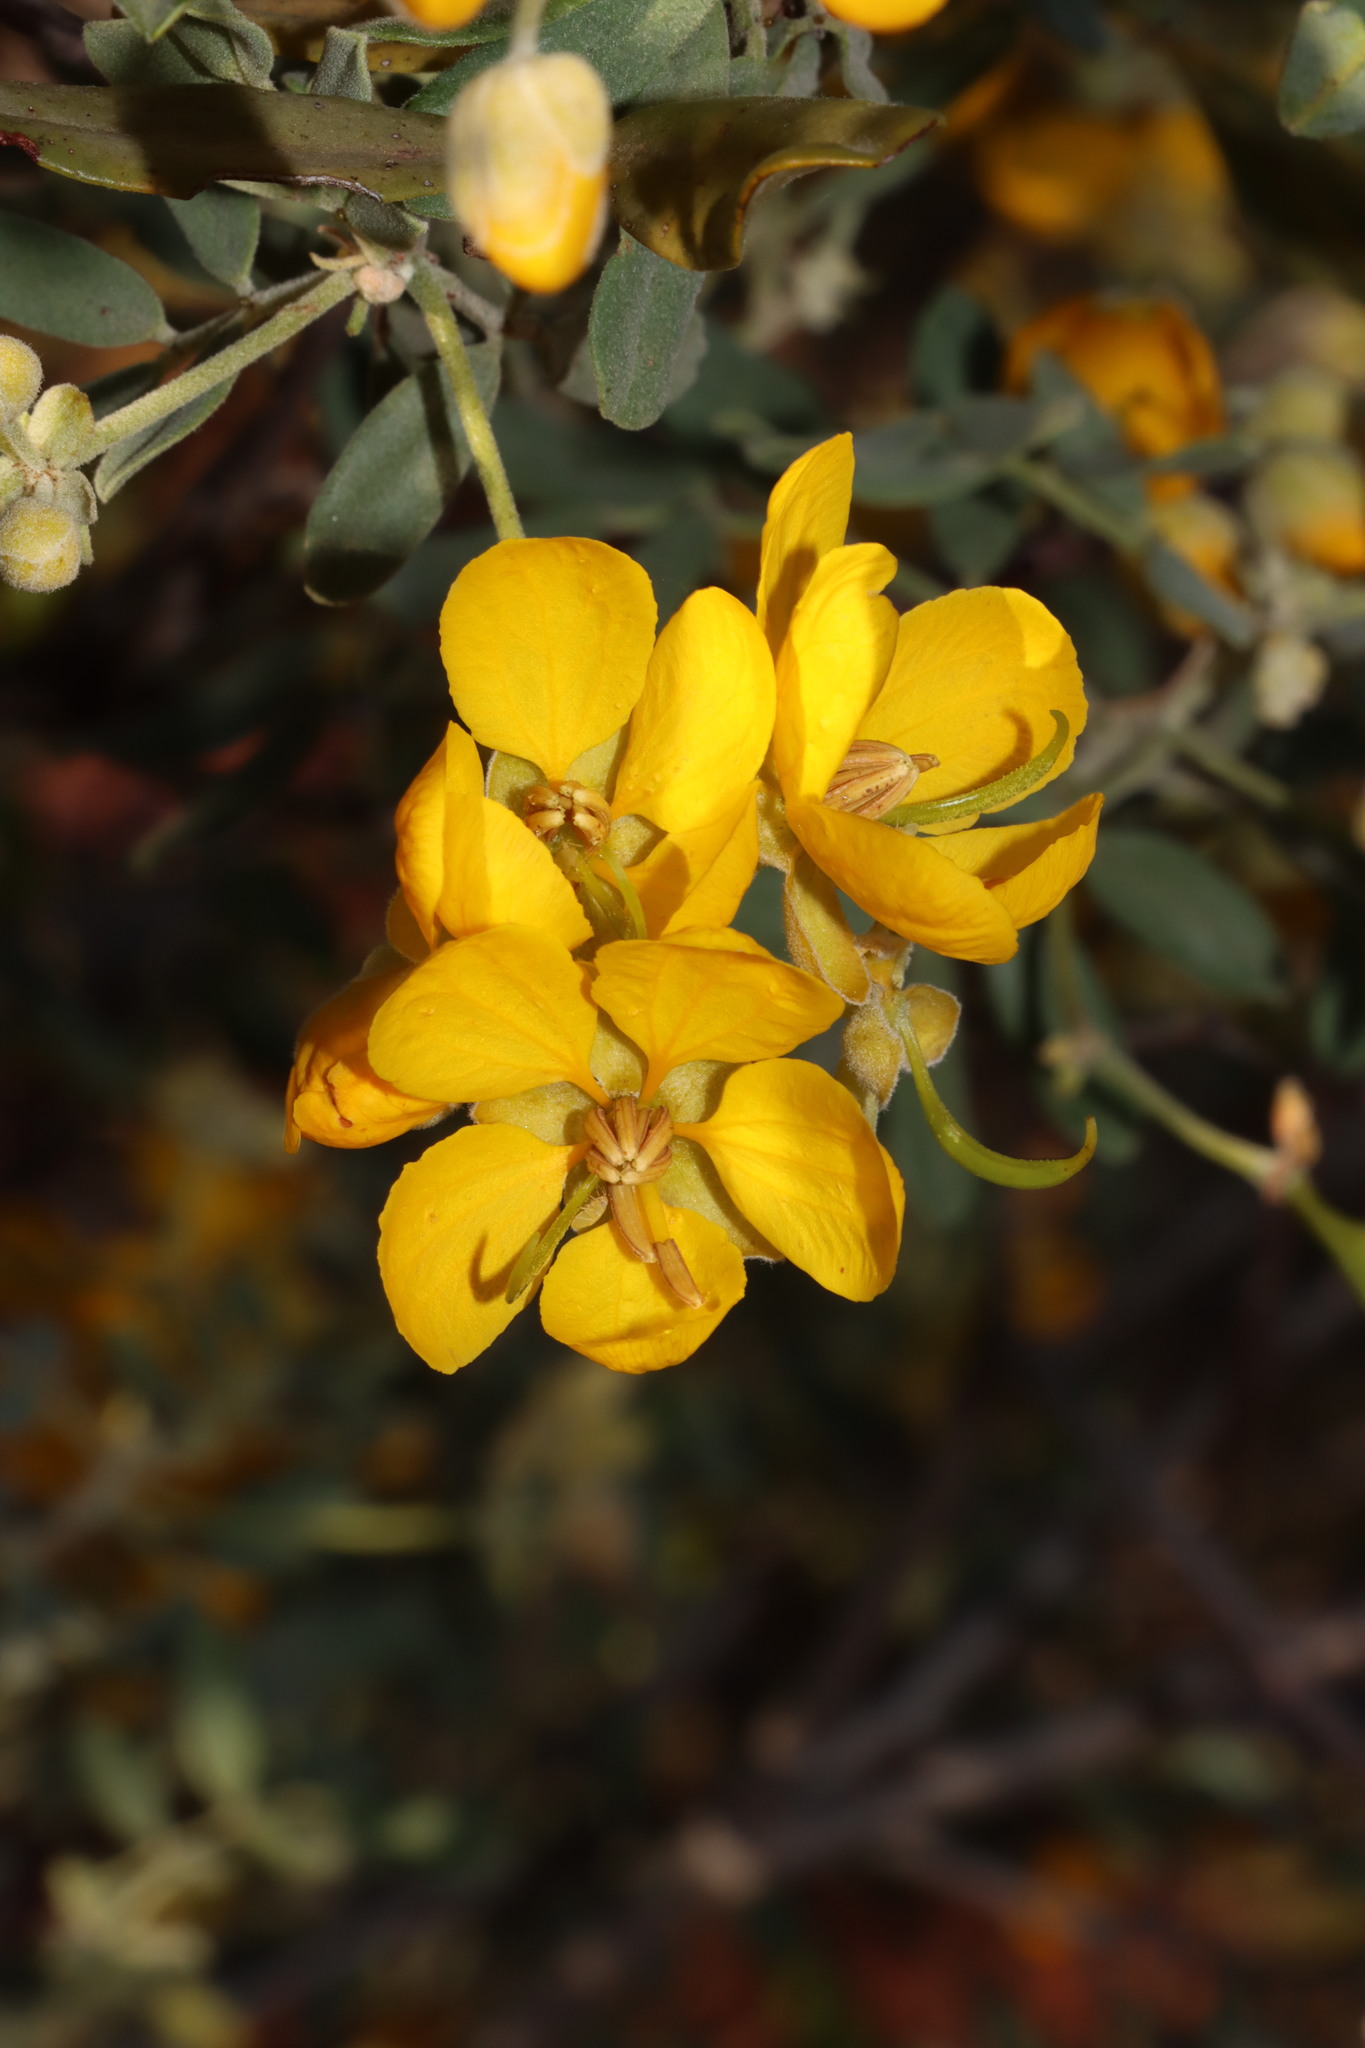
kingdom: Plantae
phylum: Tracheophyta
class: Magnoliopsida
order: Fabales
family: Fabaceae
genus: Senna
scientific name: Senna artemisioides
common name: Burnt-leaved acacia
